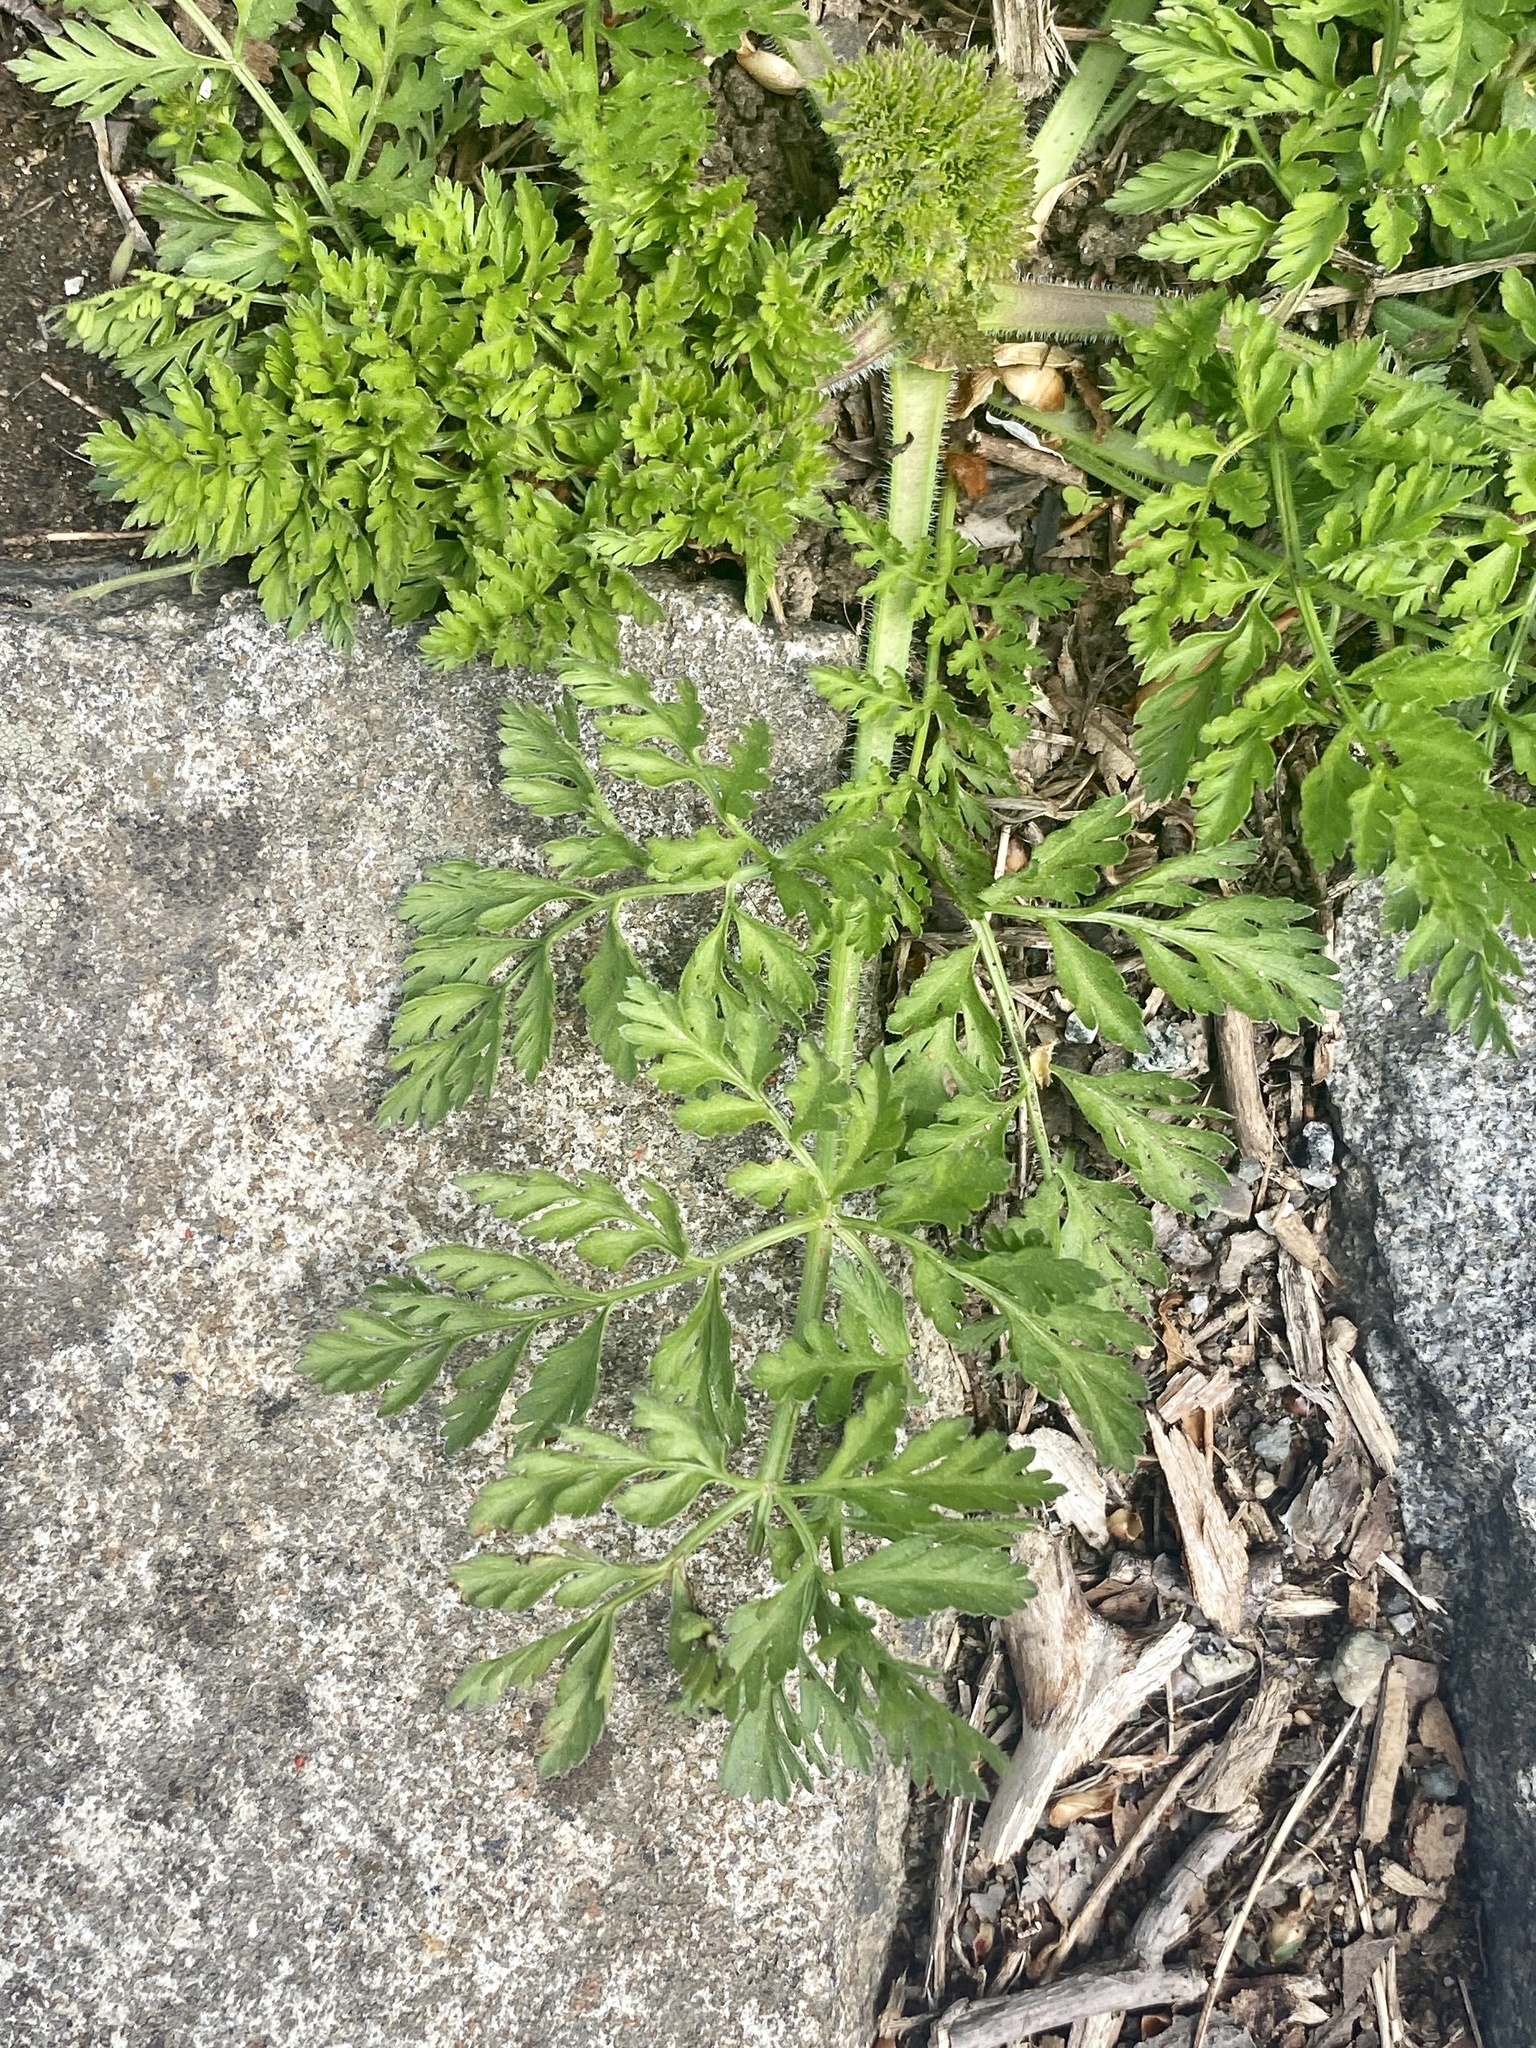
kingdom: Plantae
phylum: Tracheophyta
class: Magnoliopsida
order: Apiales
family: Apiaceae
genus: Daucus
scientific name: Daucus carota
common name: Wild carrot
